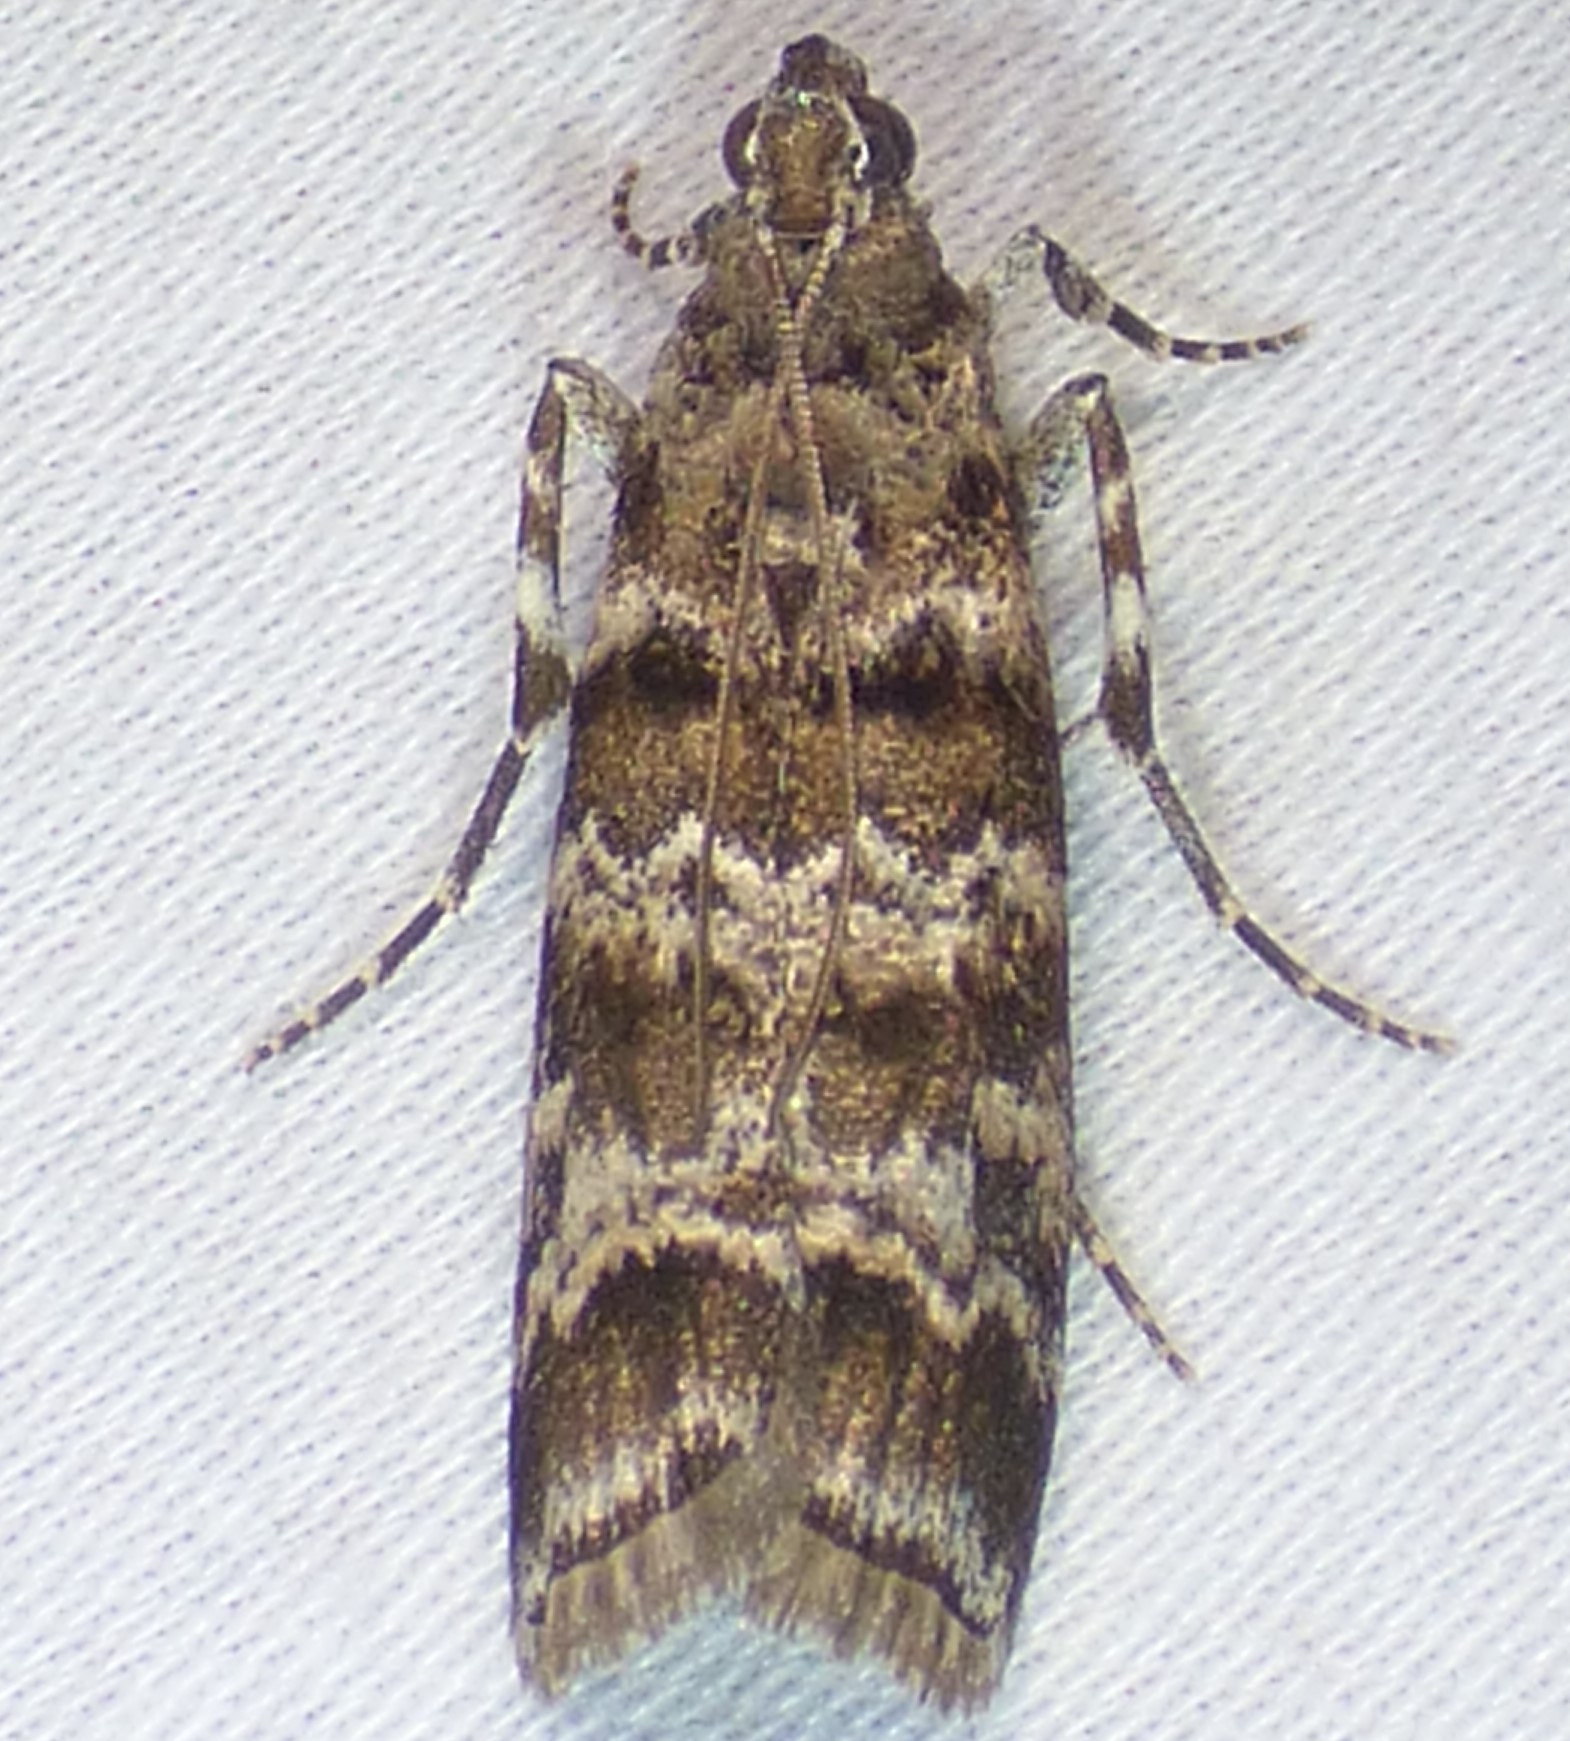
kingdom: Animalia
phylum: Arthropoda
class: Insecta
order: Lepidoptera
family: Pyralidae
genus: Dioryctria
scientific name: Dioryctria amatella
